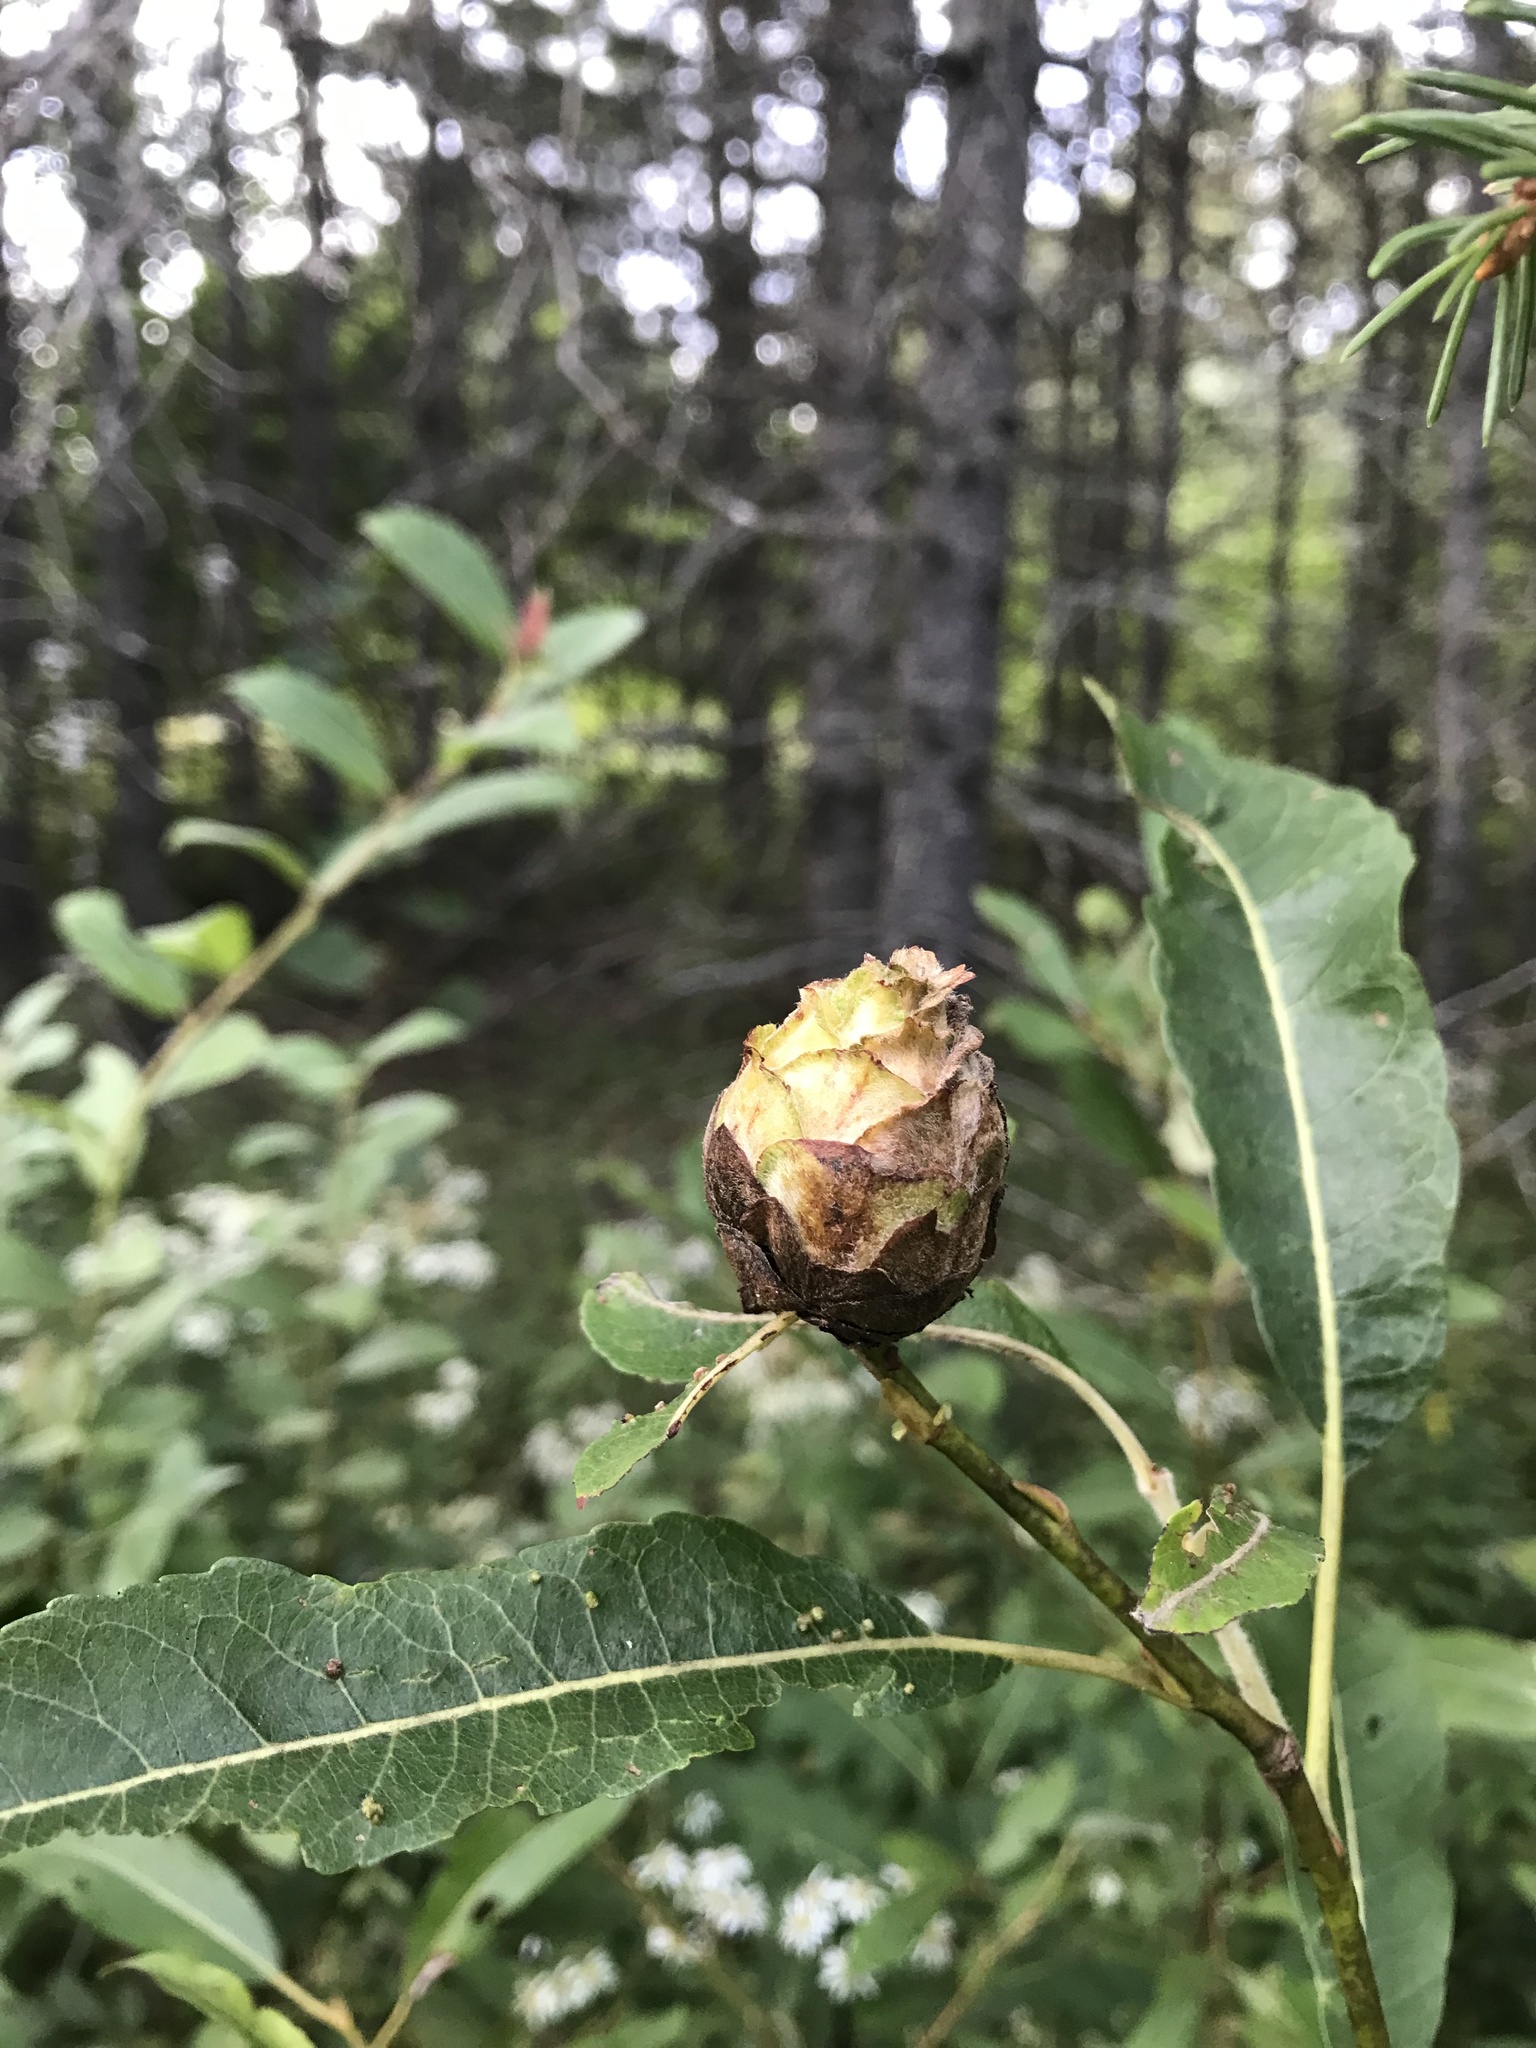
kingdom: Animalia
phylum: Arthropoda
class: Insecta
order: Diptera
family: Cecidomyiidae
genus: Rabdophaga
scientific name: Rabdophaga strobiloides
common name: Willow pinecone gall midge
